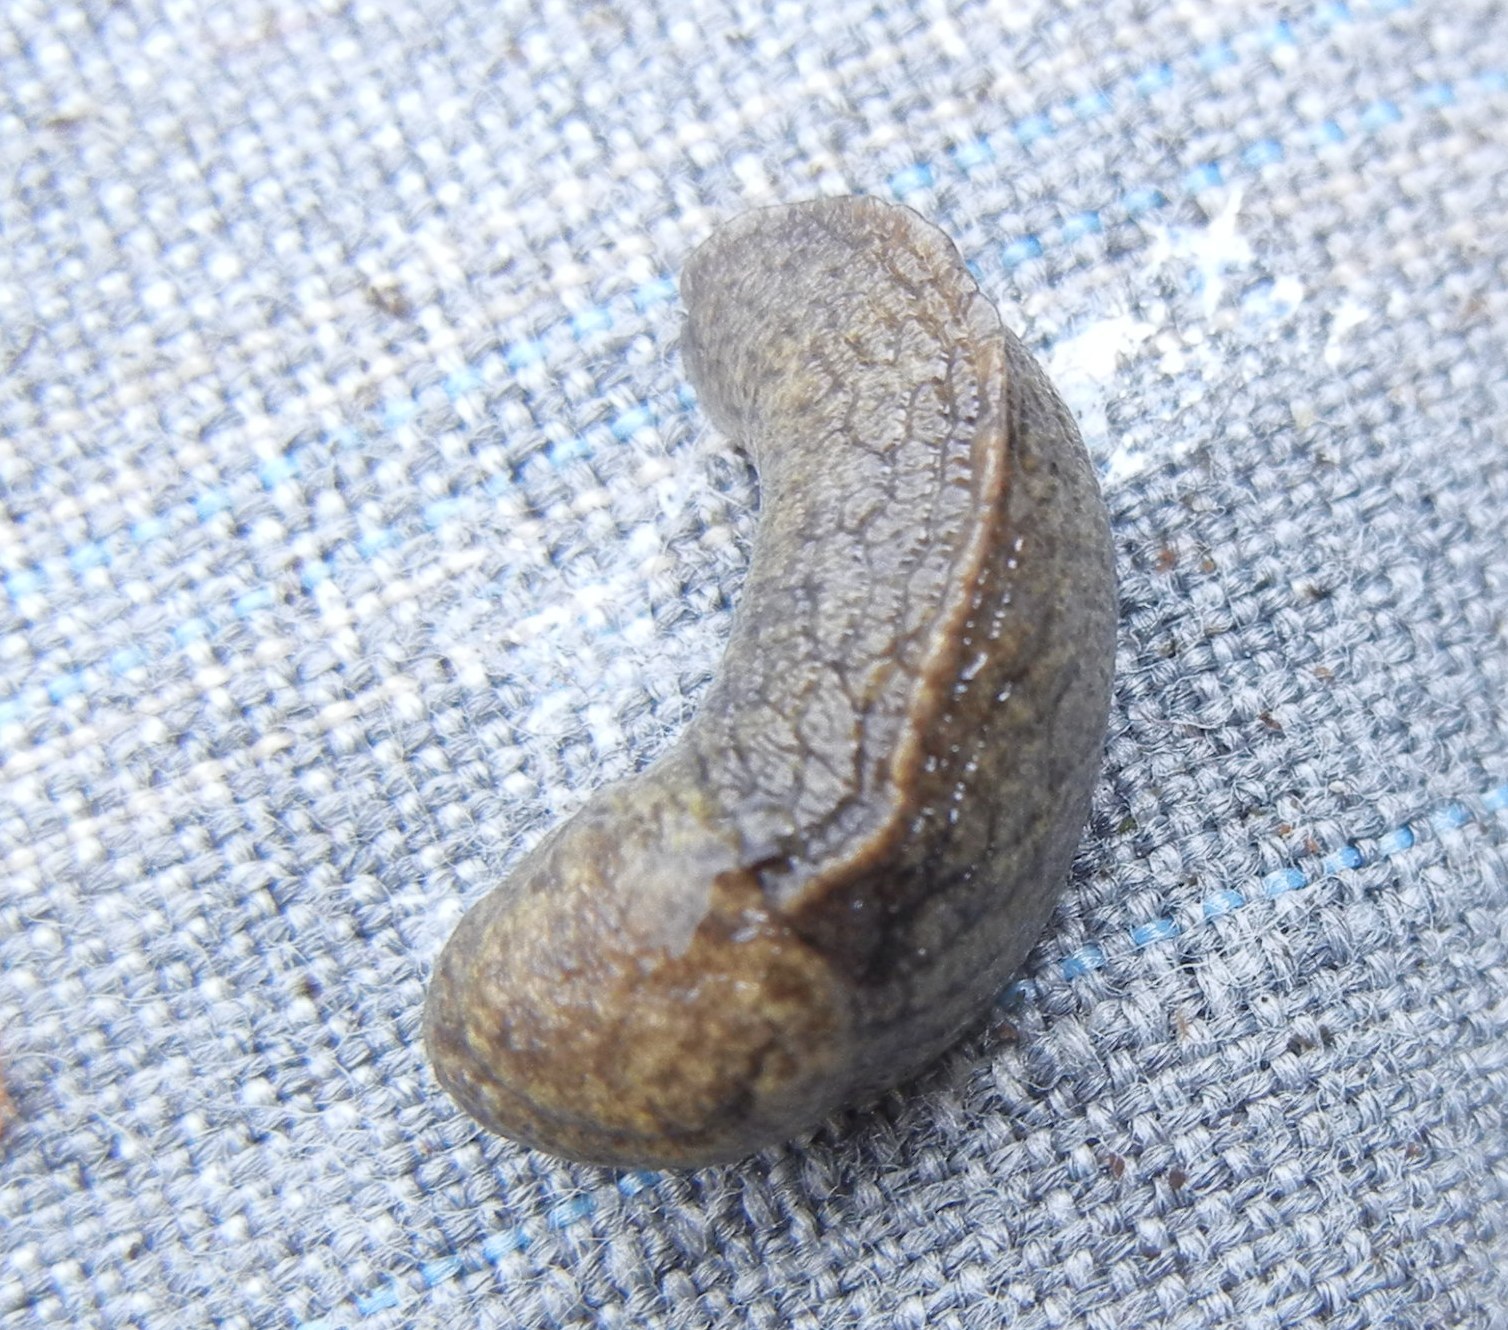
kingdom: Animalia
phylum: Mollusca
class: Gastropoda
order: Stylommatophora
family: Milacidae
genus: Tandonia
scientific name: Tandonia budapestensis
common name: Budapest slug
